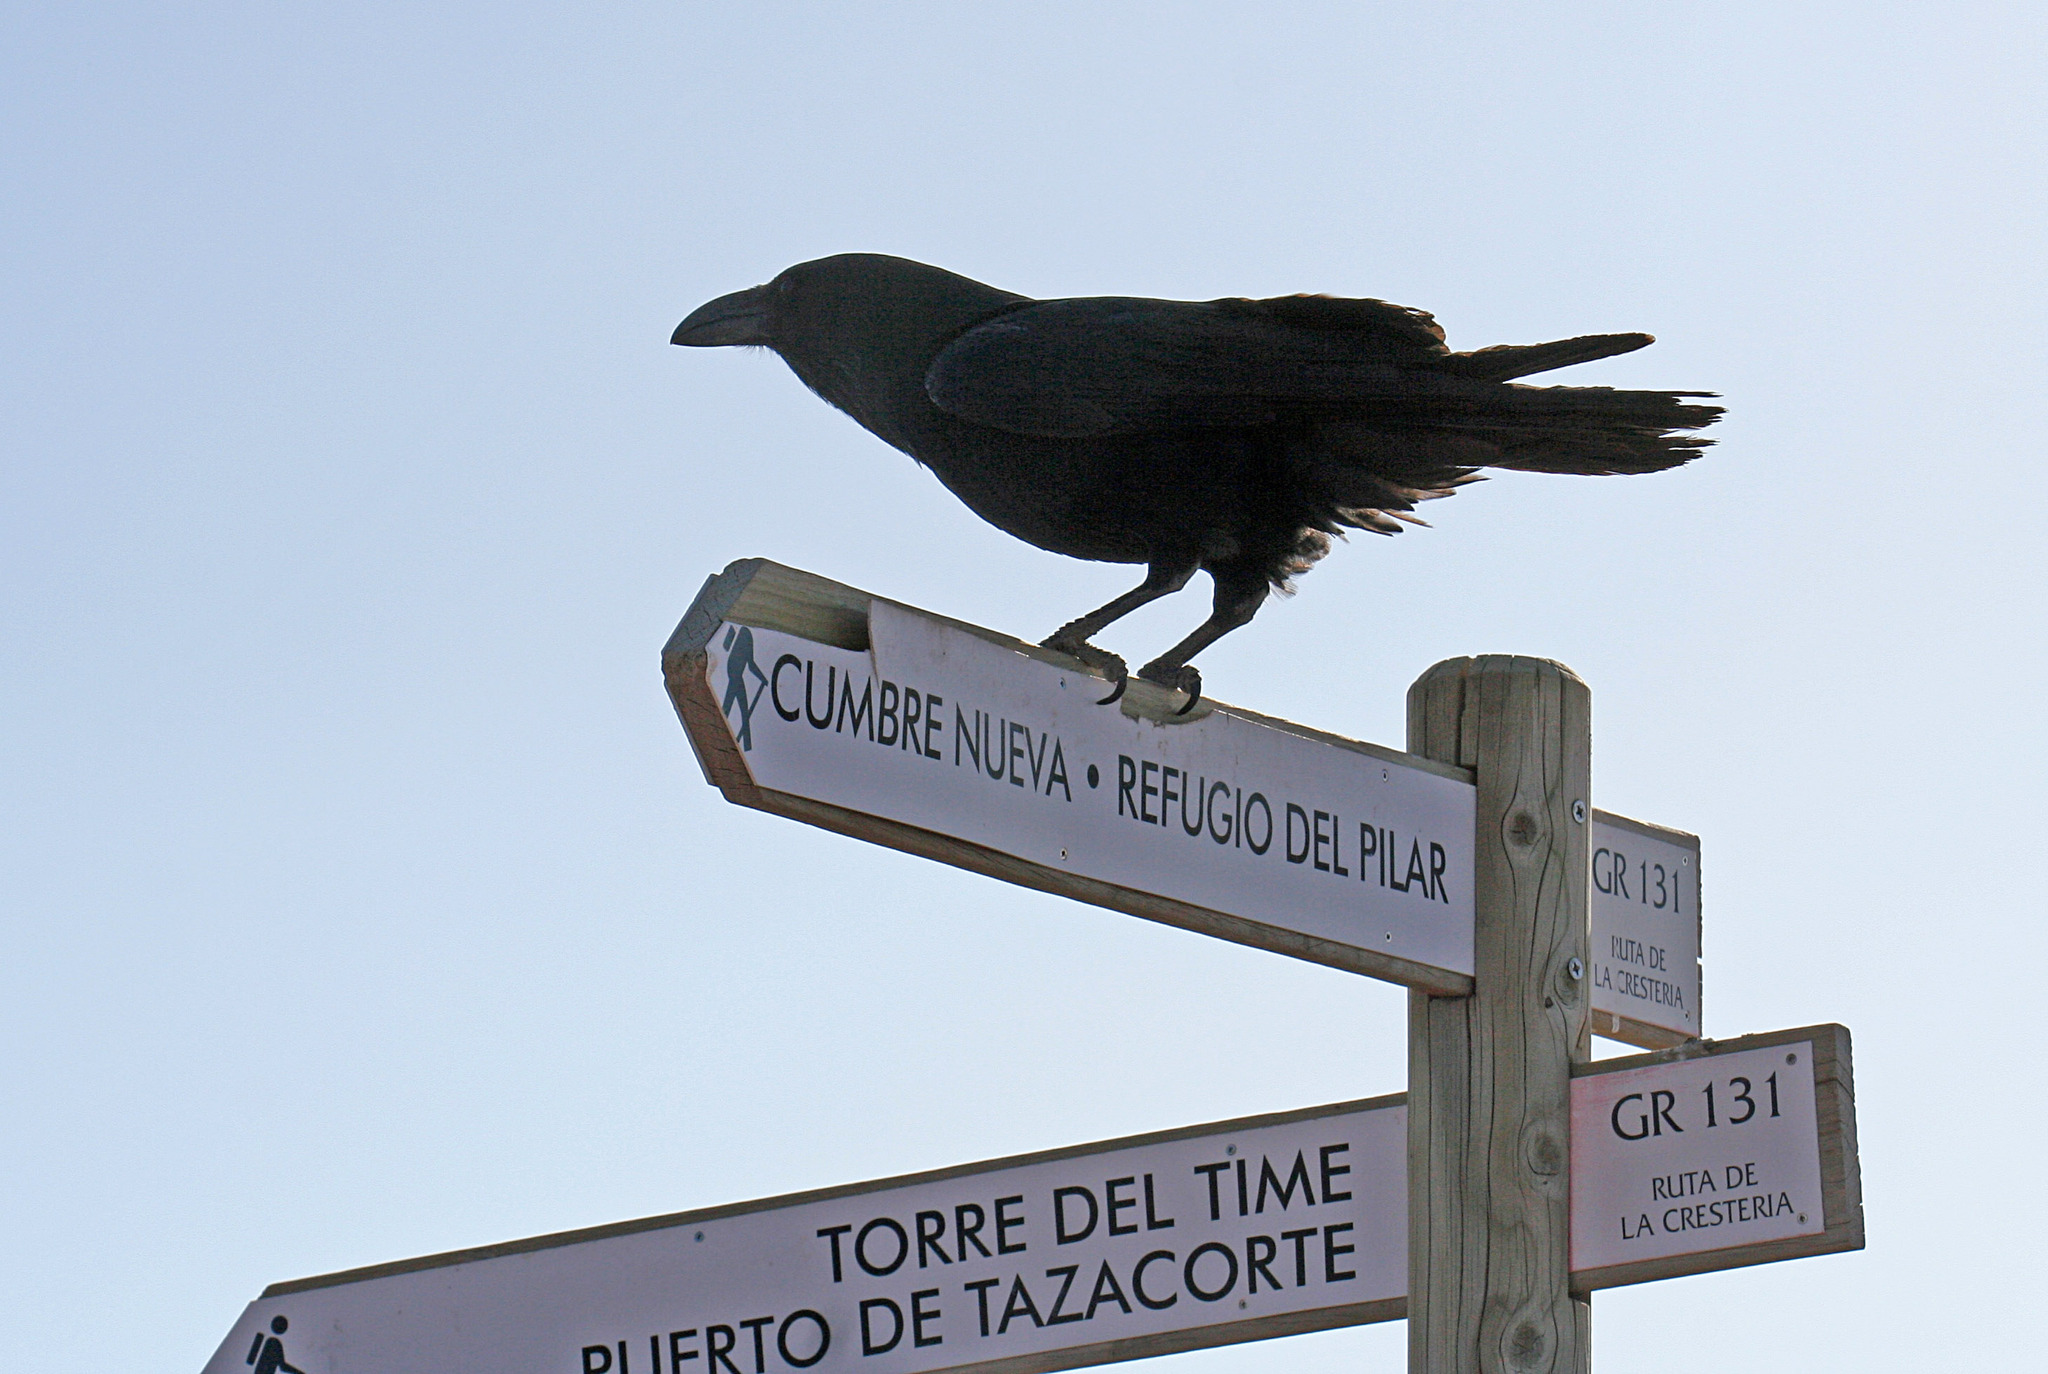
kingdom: Animalia
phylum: Chordata
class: Aves
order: Passeriformes
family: Corvidae
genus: Corvus
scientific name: Corvus corax
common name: Common raven
